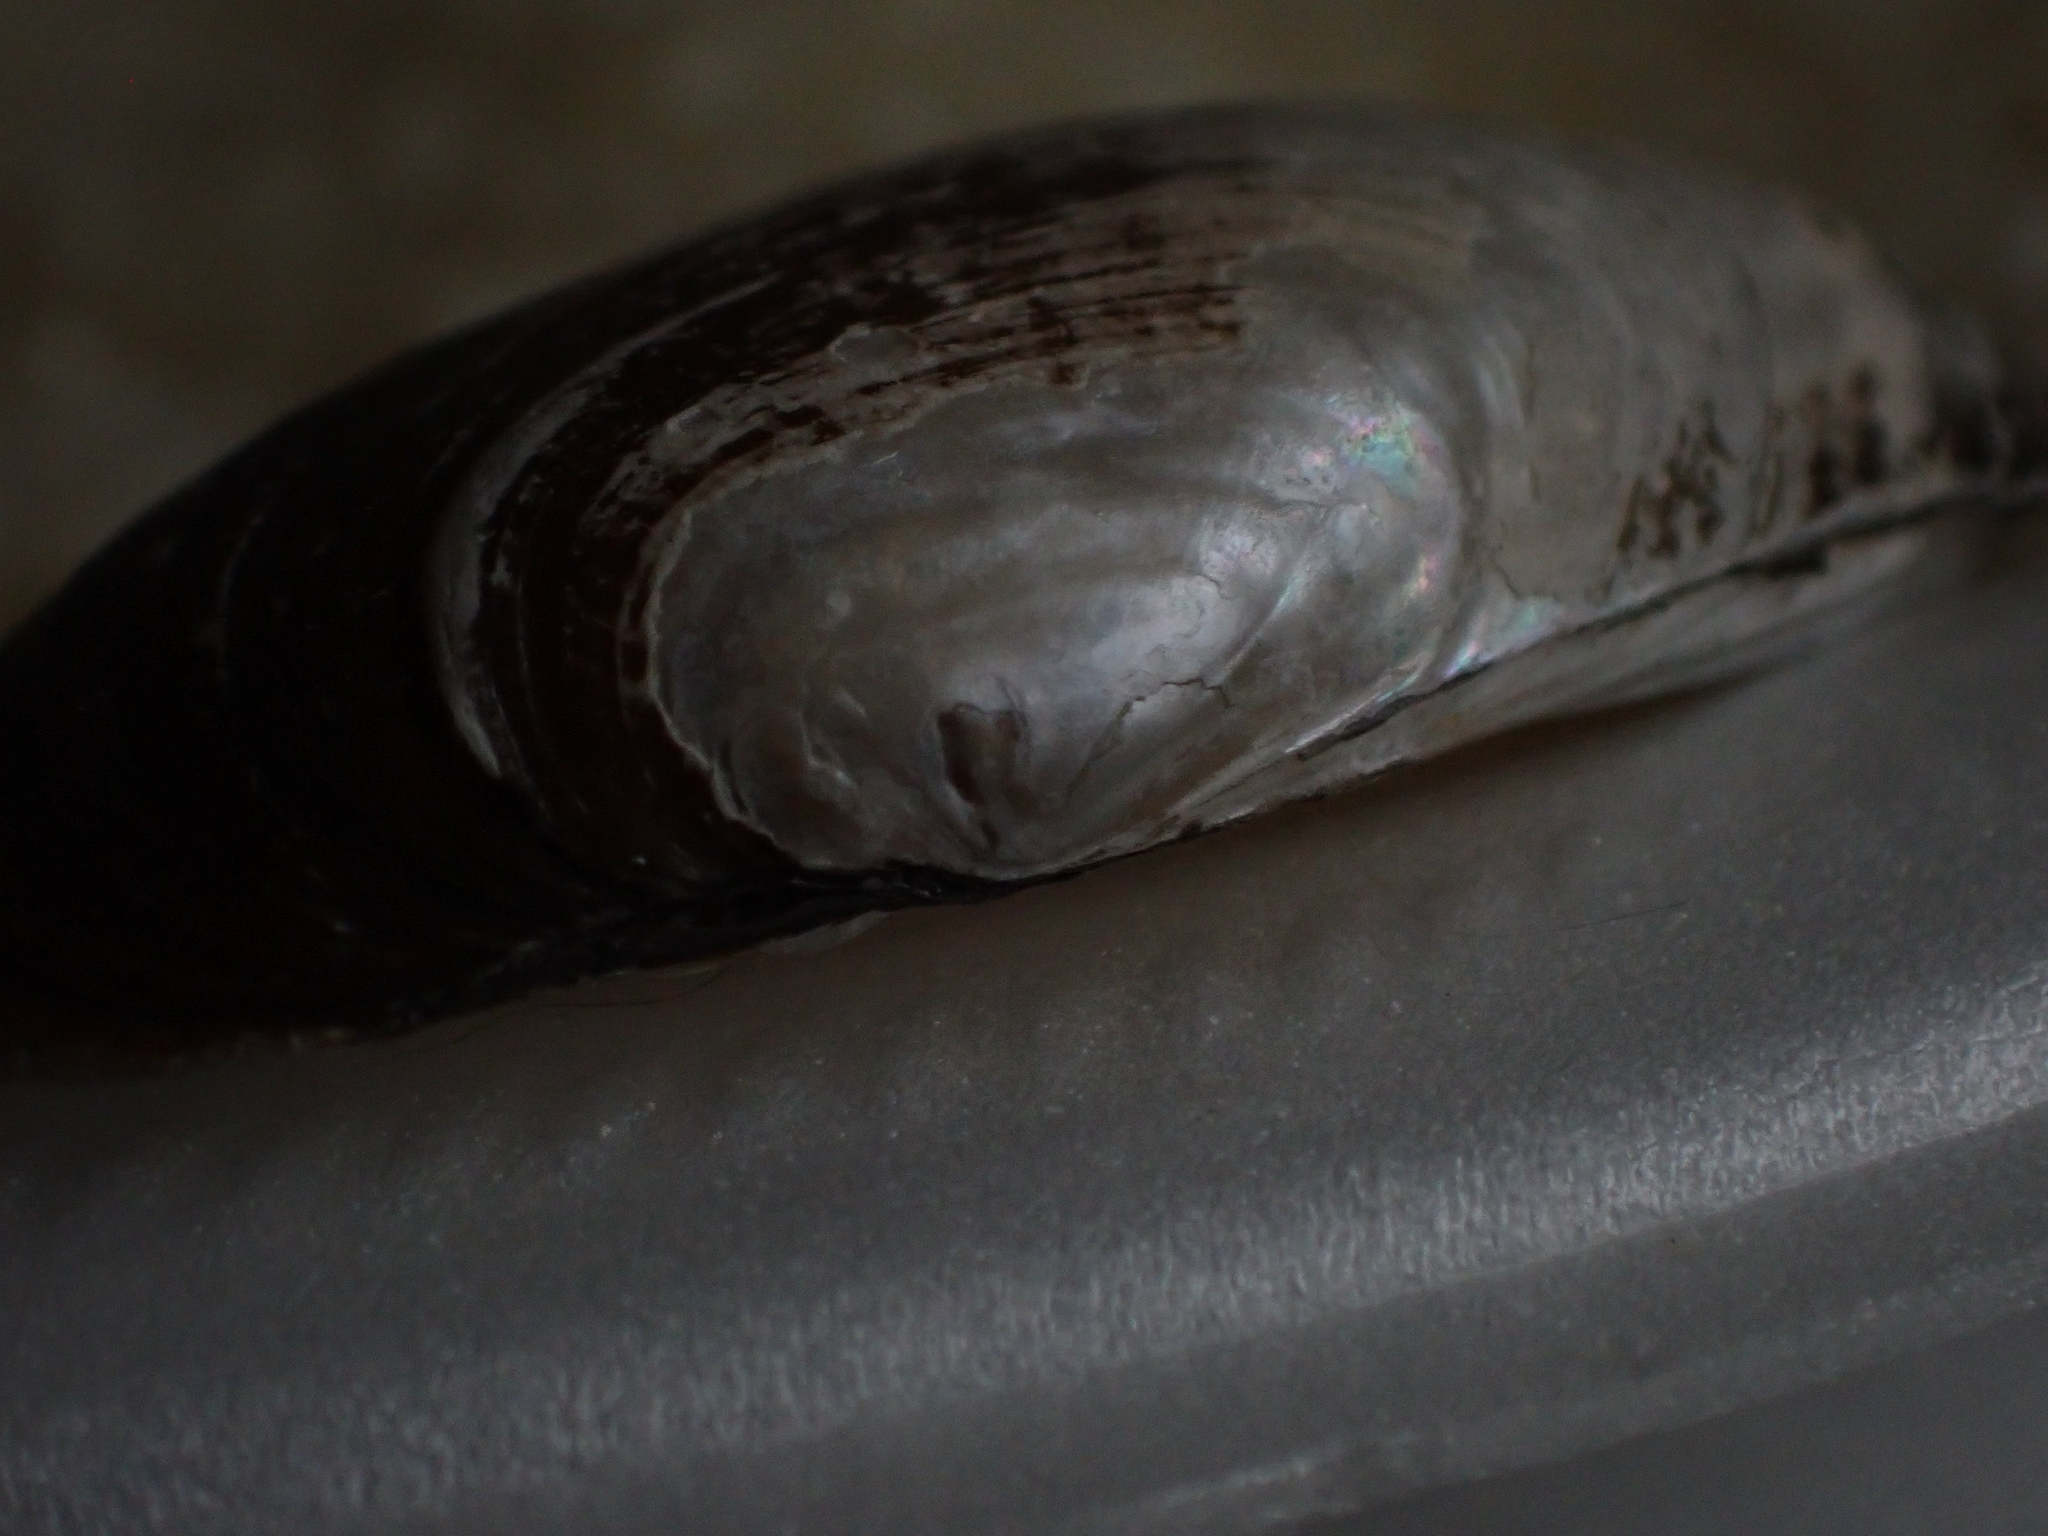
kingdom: Animalia
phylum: Mollusca
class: Bivalvia
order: Unionida
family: Unionidae
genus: Lampsilis
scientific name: Lampsilis siliquoidea
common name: Fatmucket
